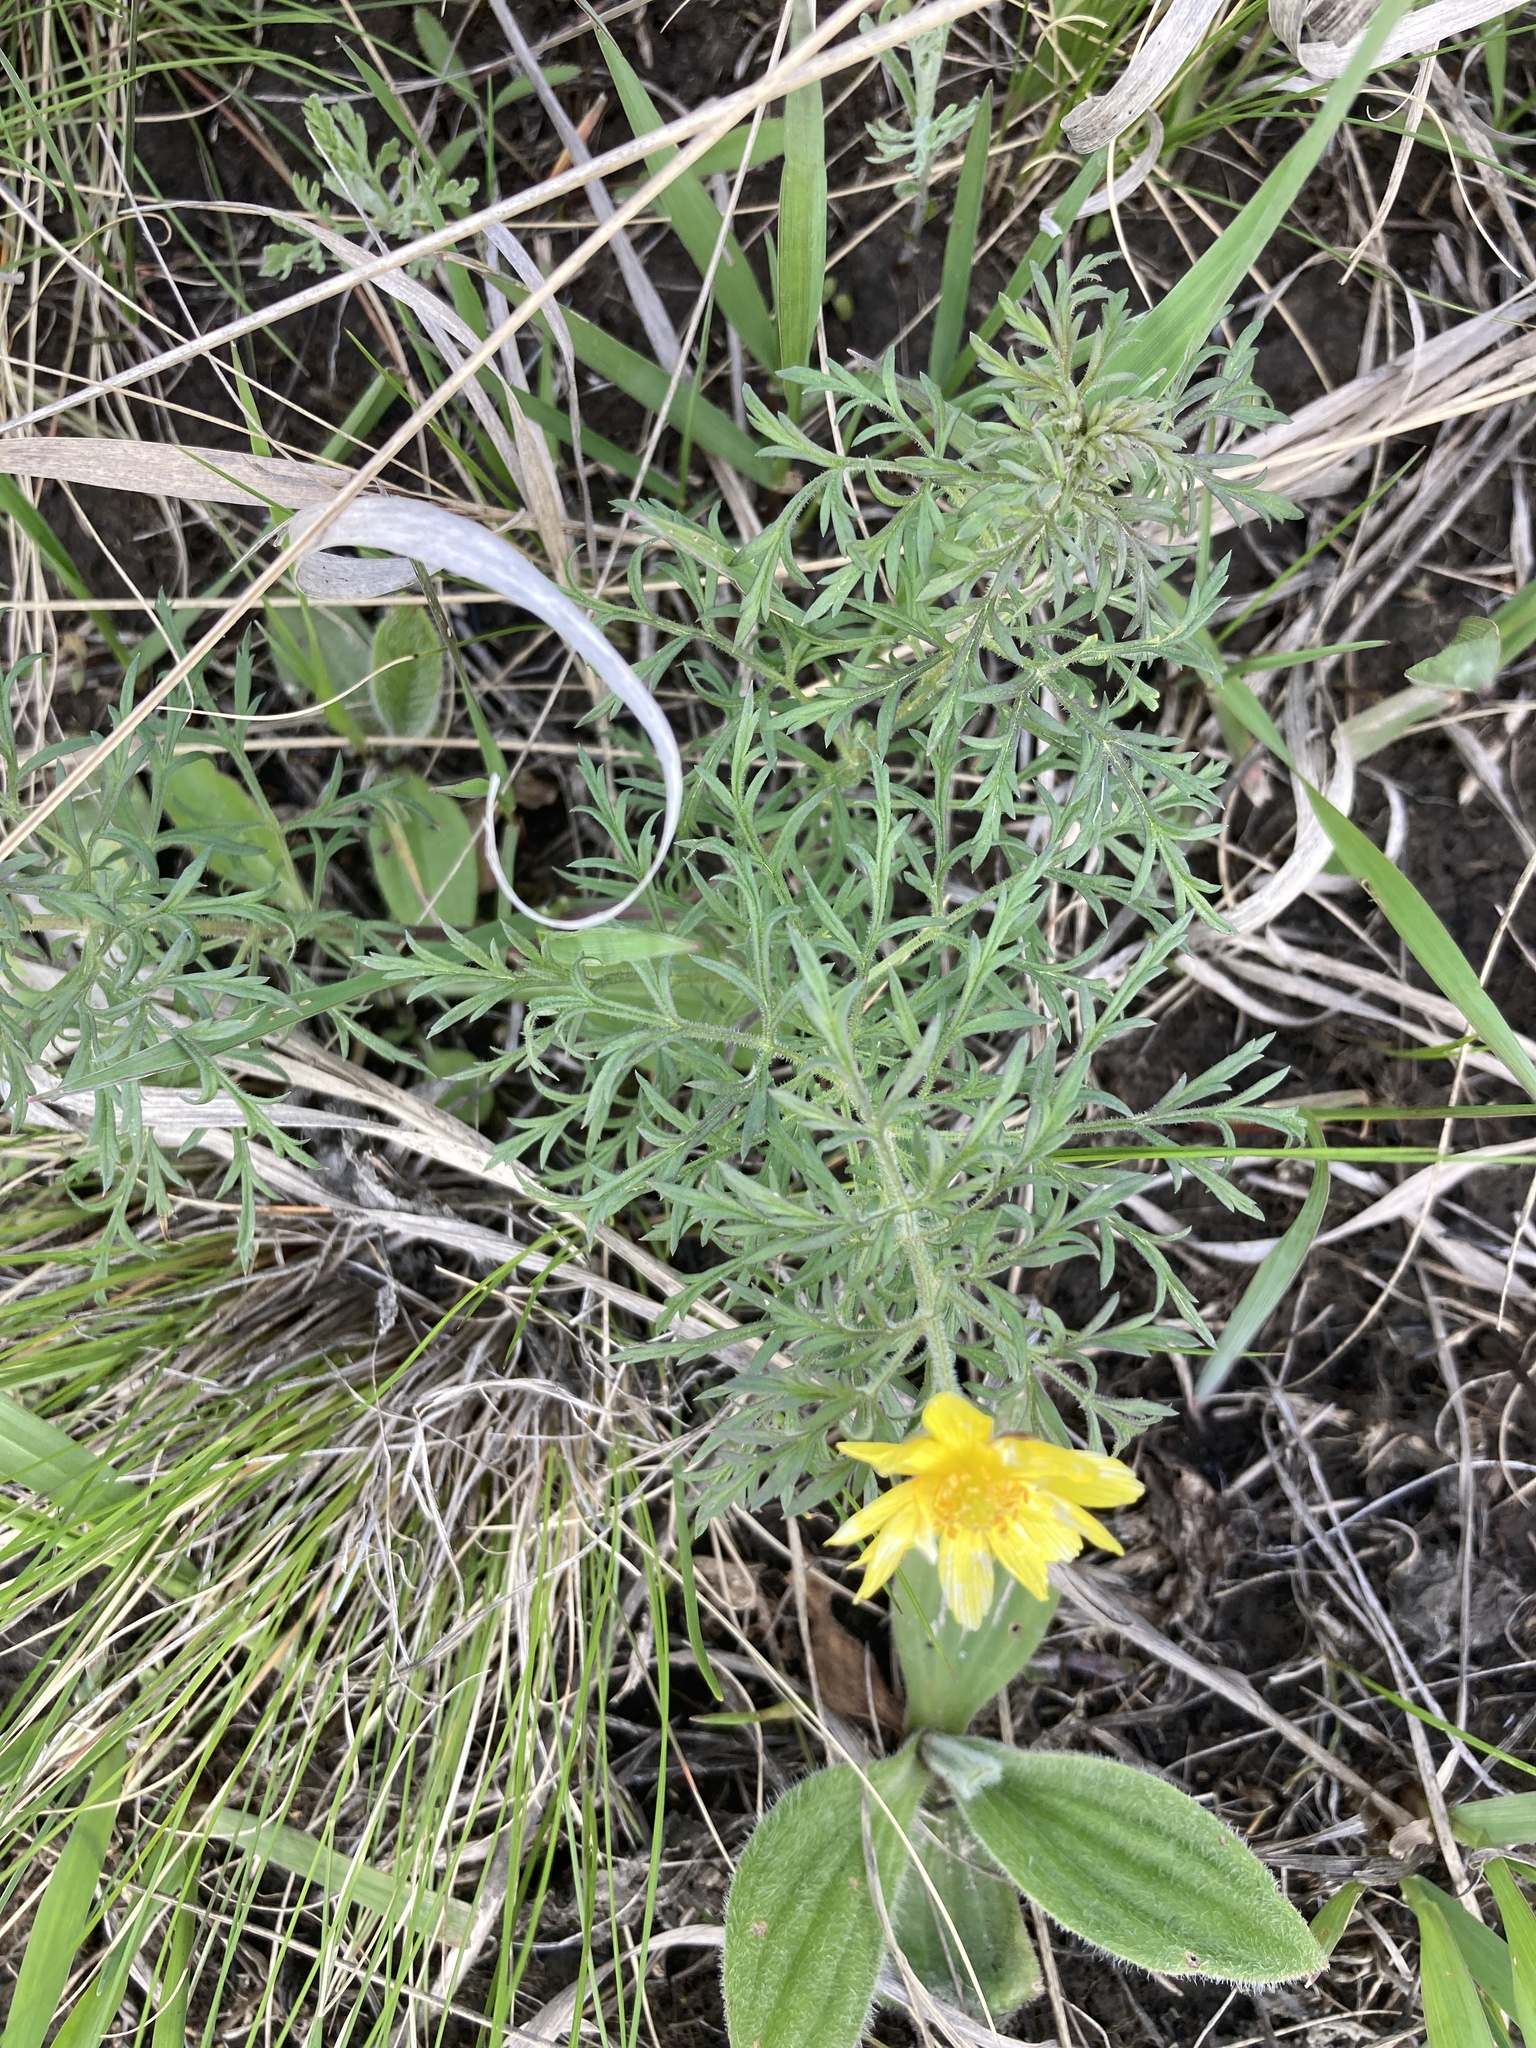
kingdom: Plantae
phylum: Tracheophyta
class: Magnoliopsida
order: Ranunculales
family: Ranunculaceae
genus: Adonis
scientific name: Adonis volgensis
